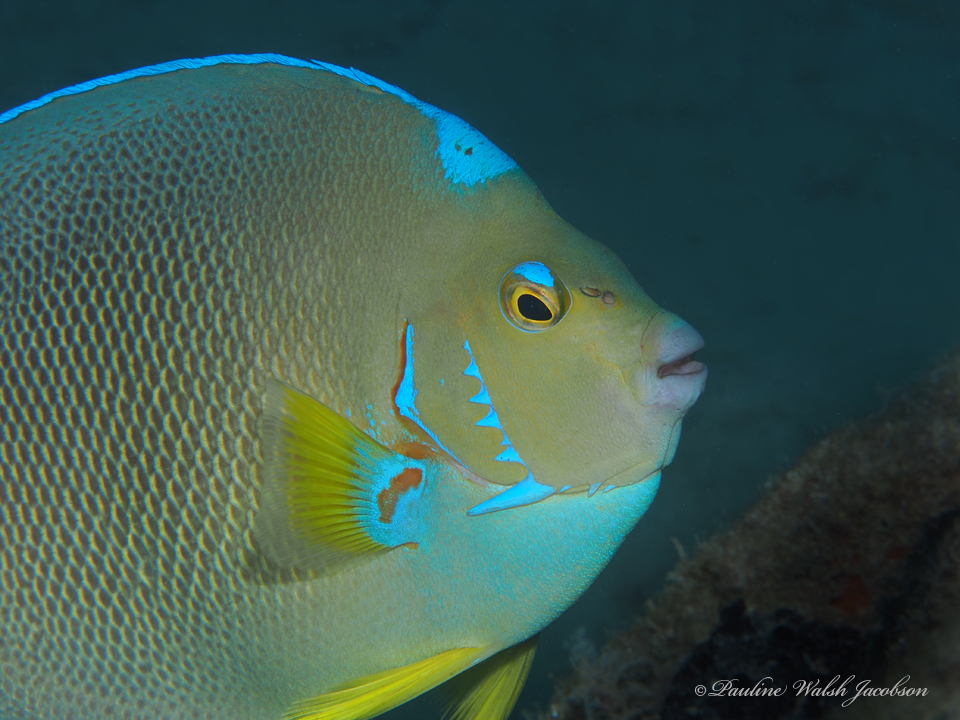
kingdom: Animalia
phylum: Chordata
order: Perciformes
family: Pomacanthidae
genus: Holacanthus
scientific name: Holacanthus ciliaris
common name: Queen angelfish
